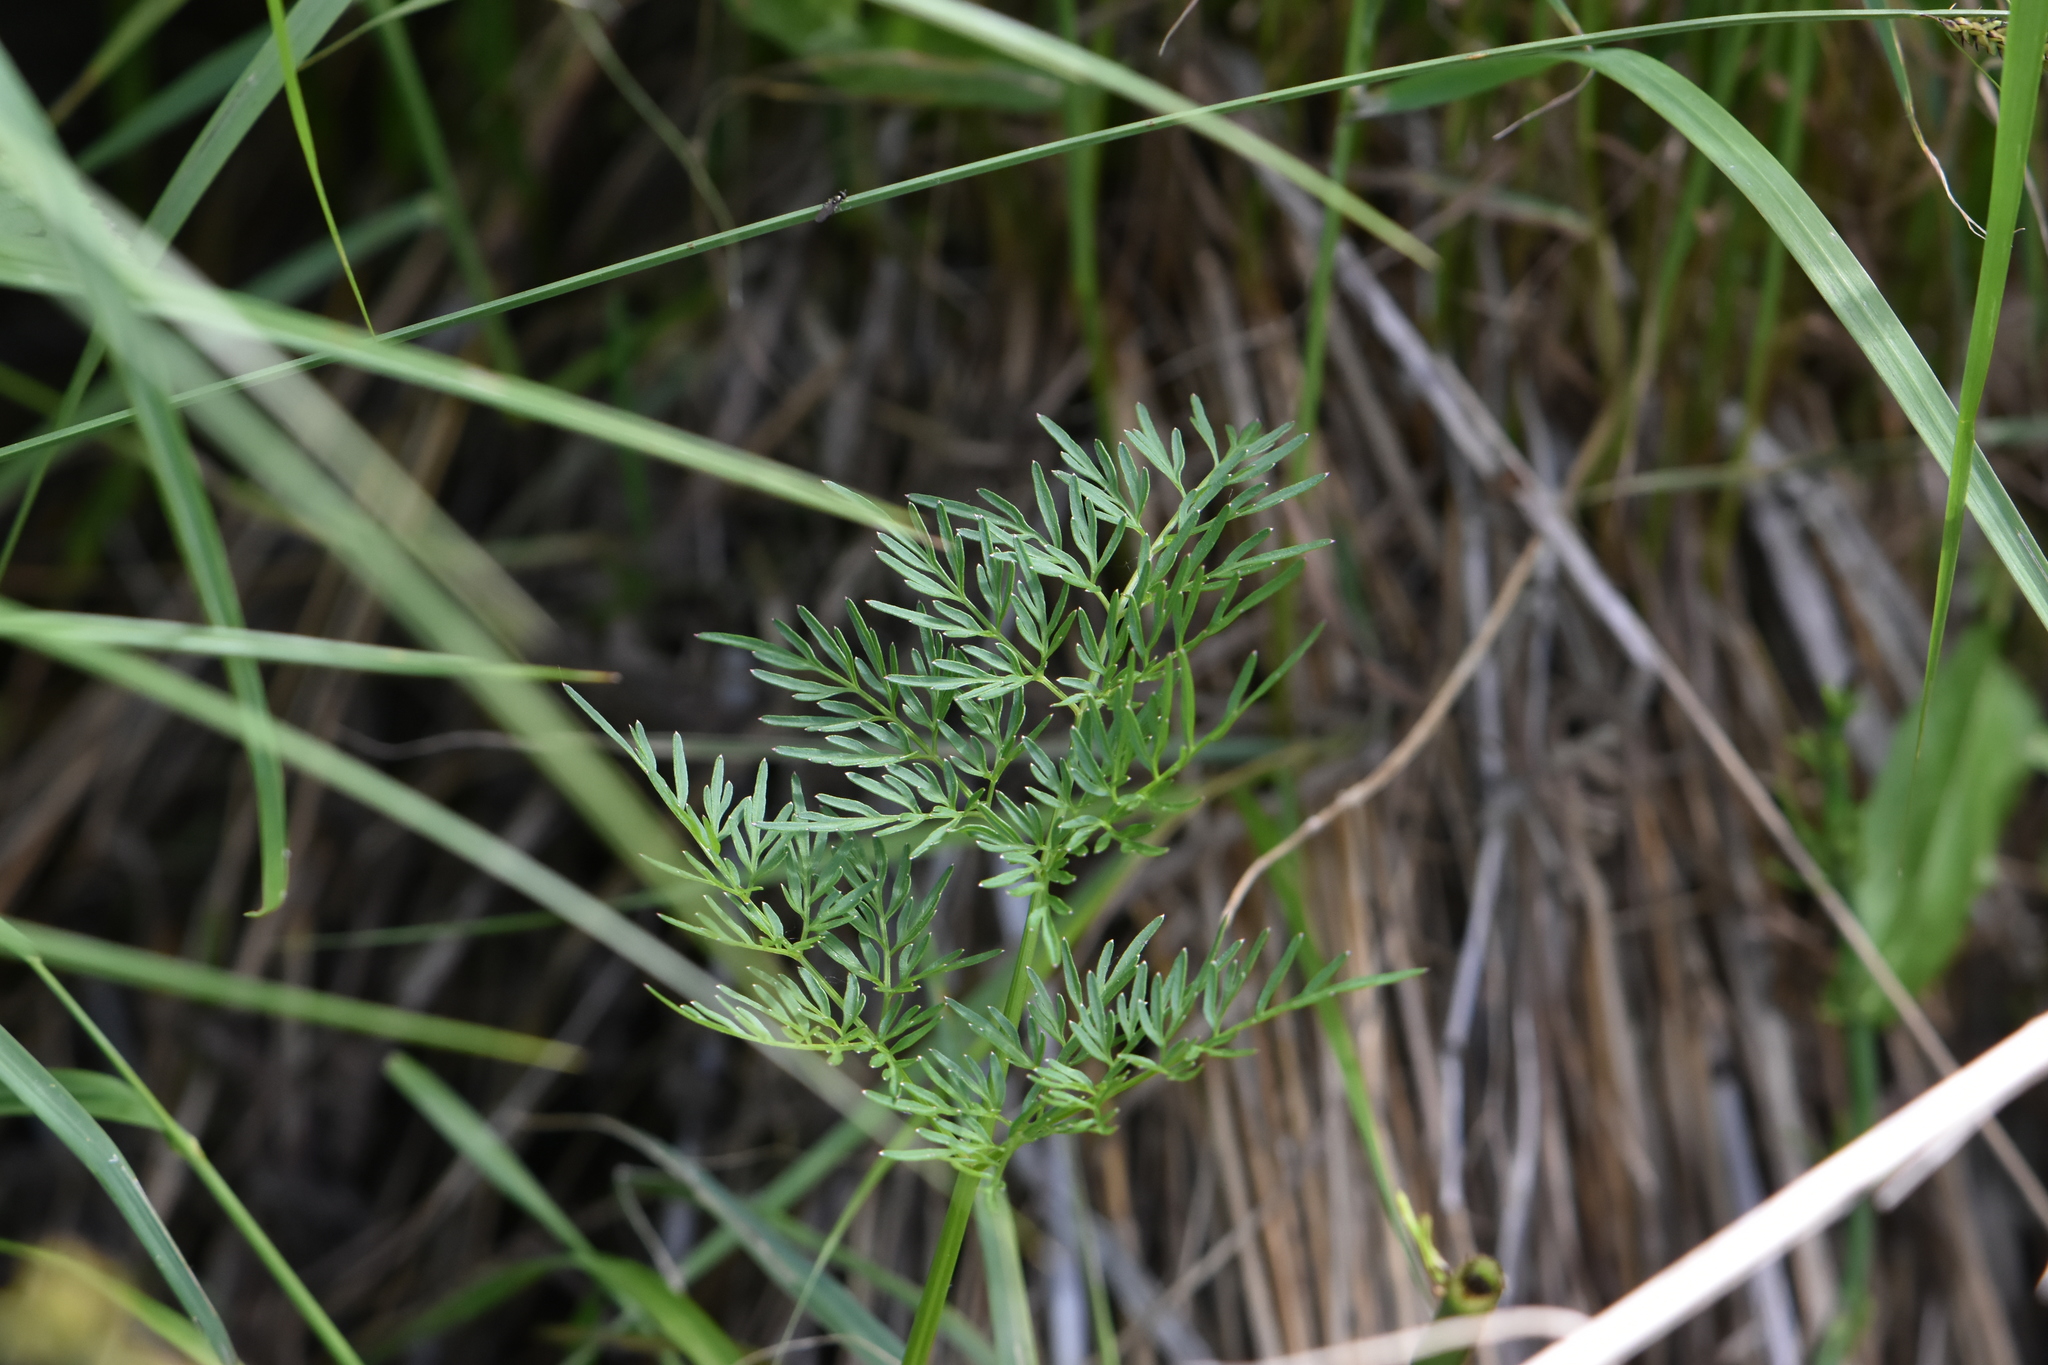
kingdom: Plantae
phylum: Tracheophyta
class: Magnoliopsida
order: Apiales
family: Apiaceae
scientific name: Apiaceae
